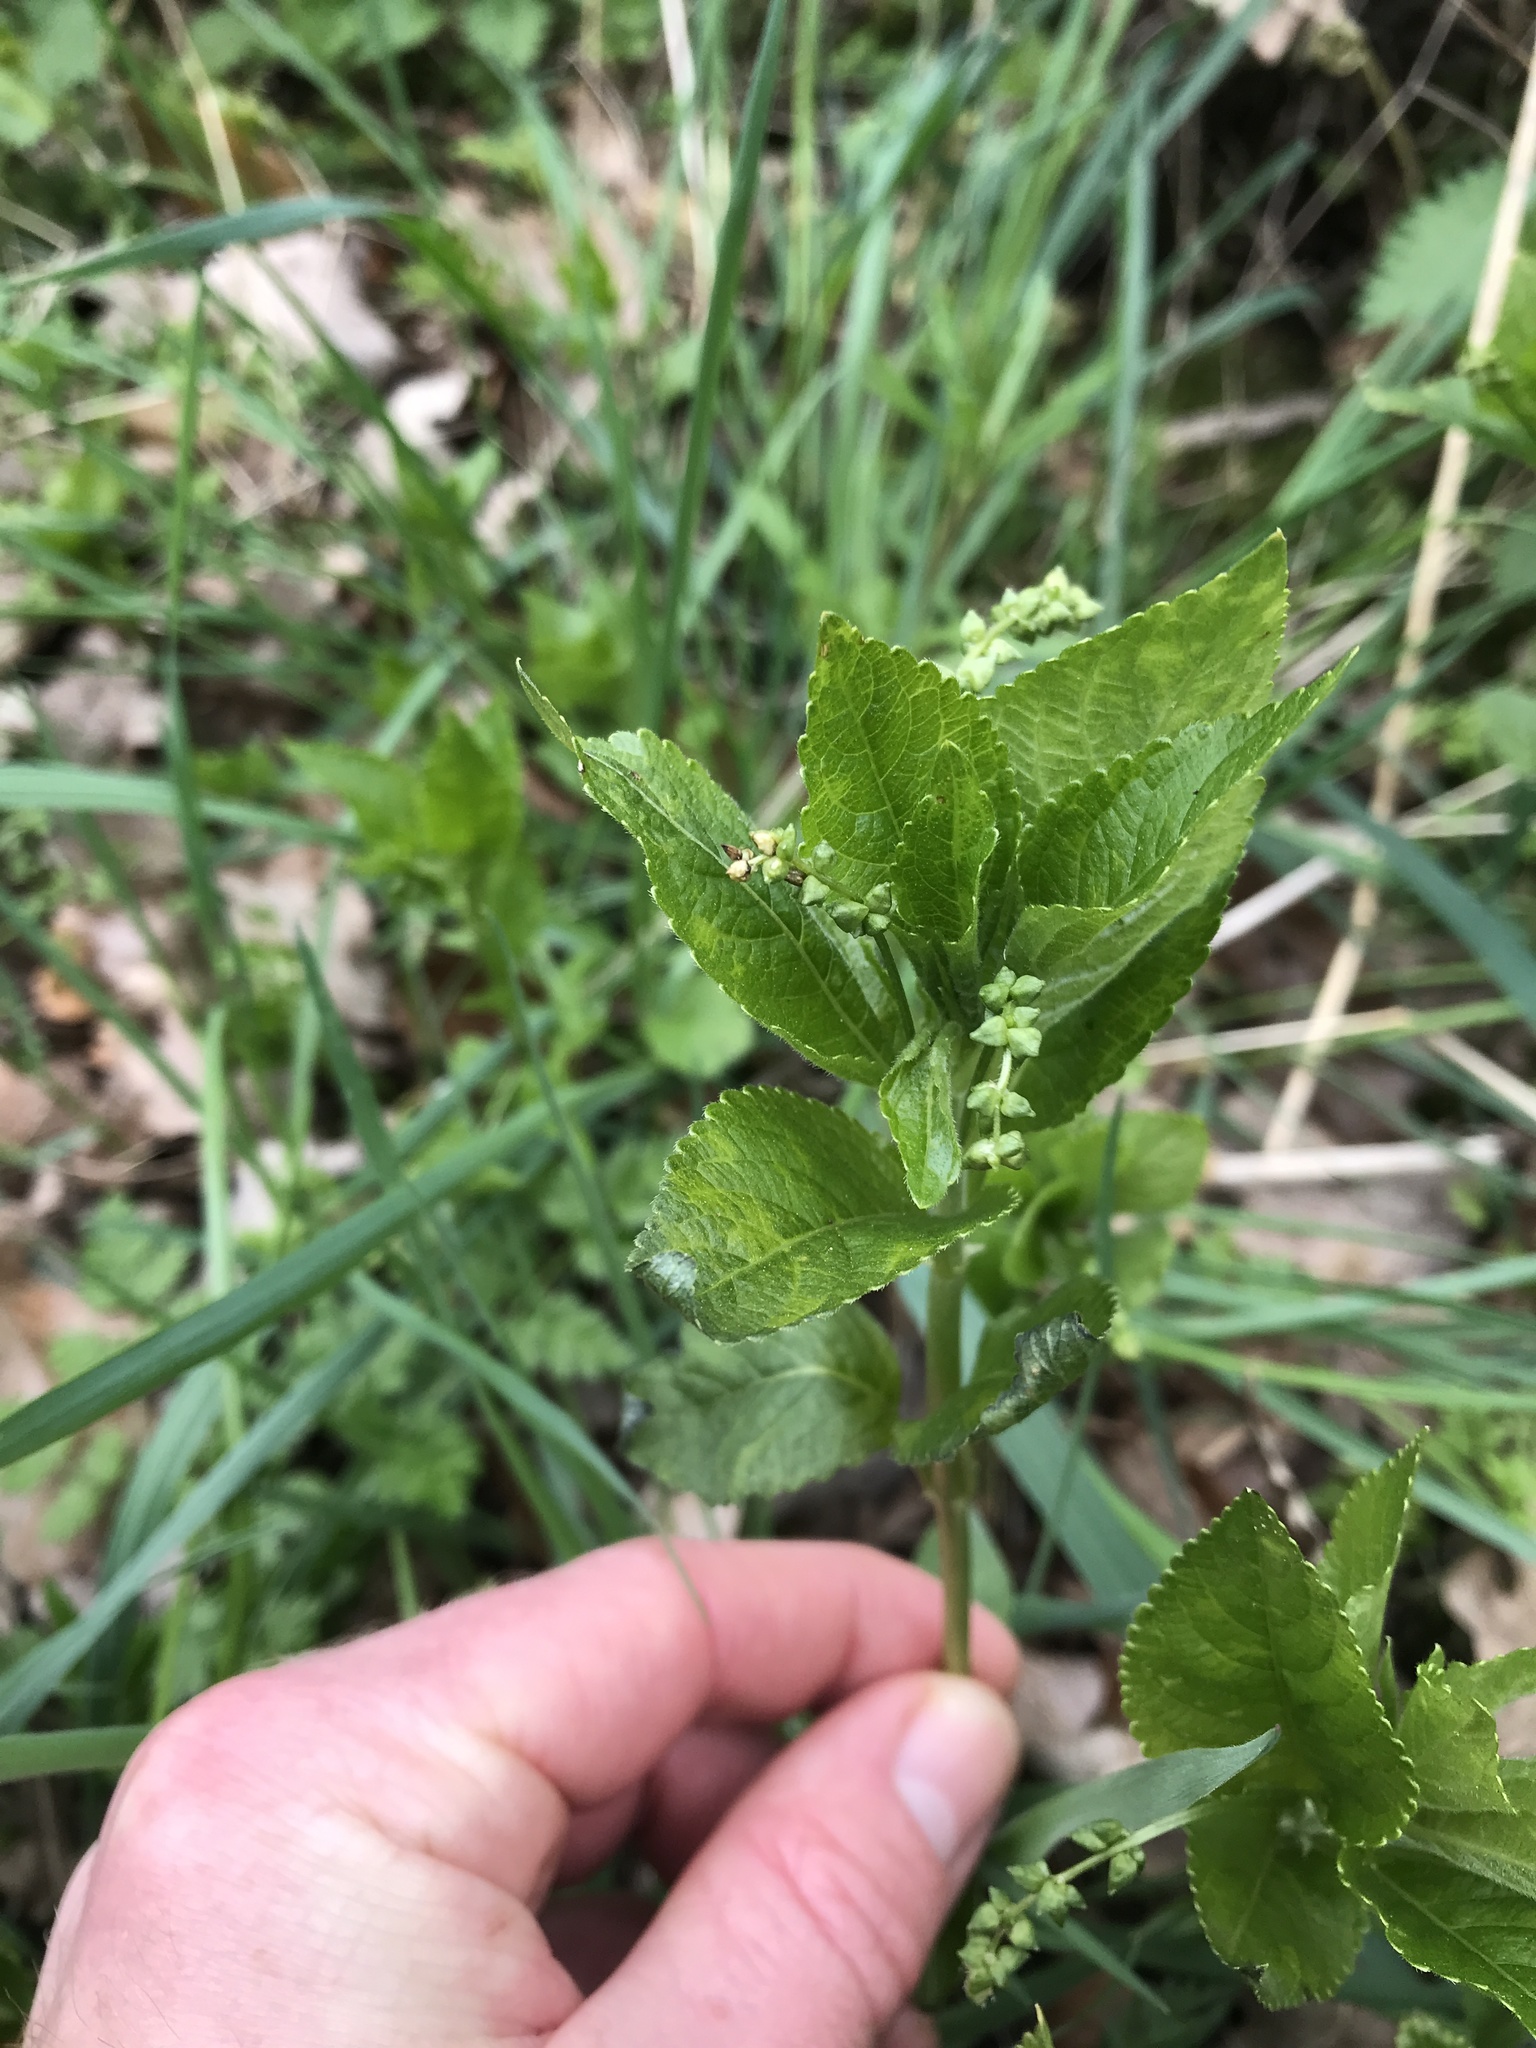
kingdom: Plantae
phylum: Tracheophyta
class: Magnoliopsida
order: Malpighiales
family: Euphorbiaceae
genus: Mercurialis
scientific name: Mercurialis perennis
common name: Dog mercury
